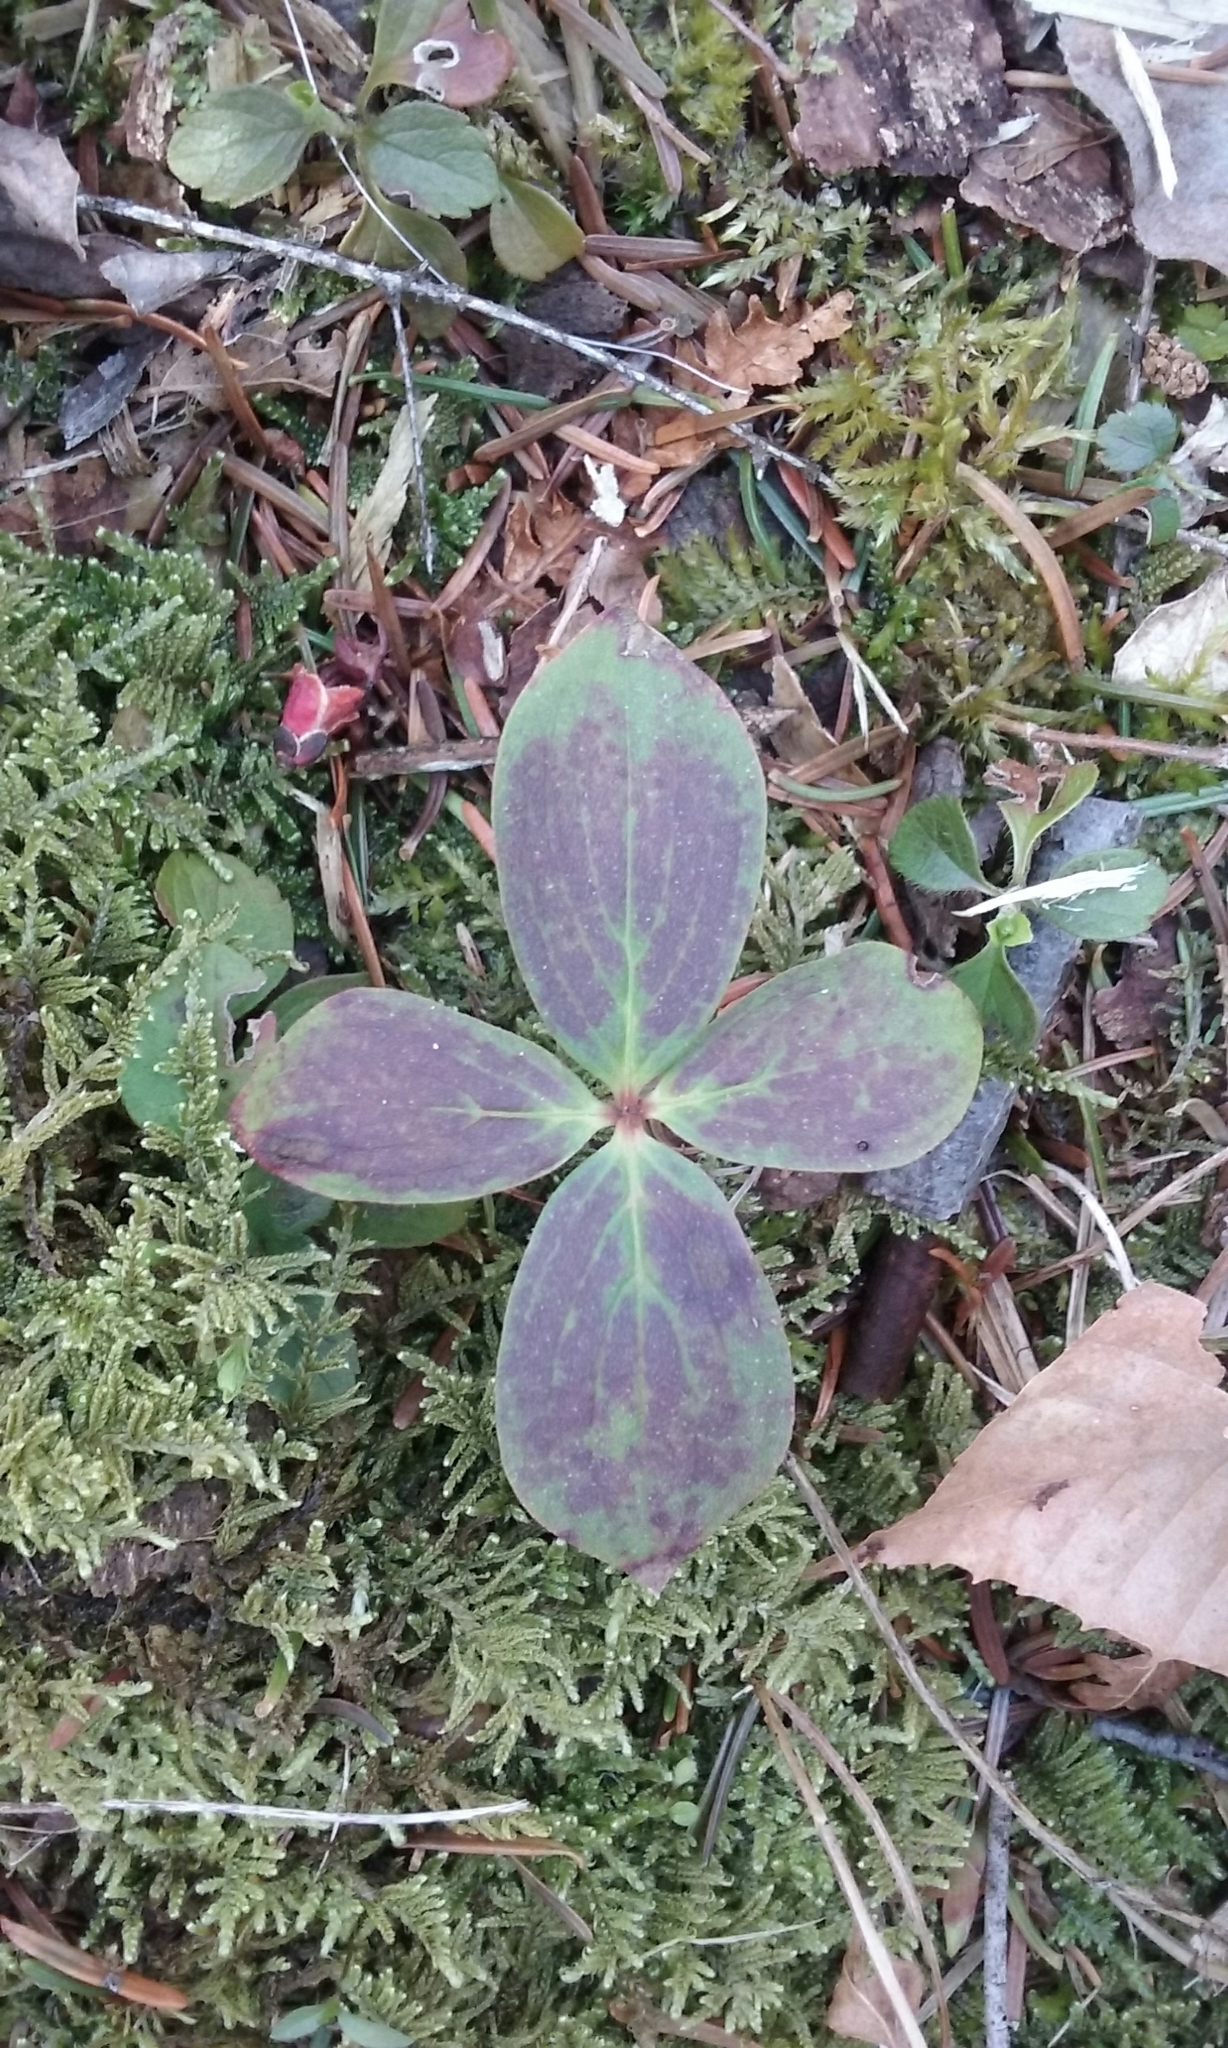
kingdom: Plantae
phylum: Tracheophyta
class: Magnoliopsida
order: Cornales
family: Cornaceae
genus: Cornus
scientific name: Cornus canadensis
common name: Creeping dogwood
